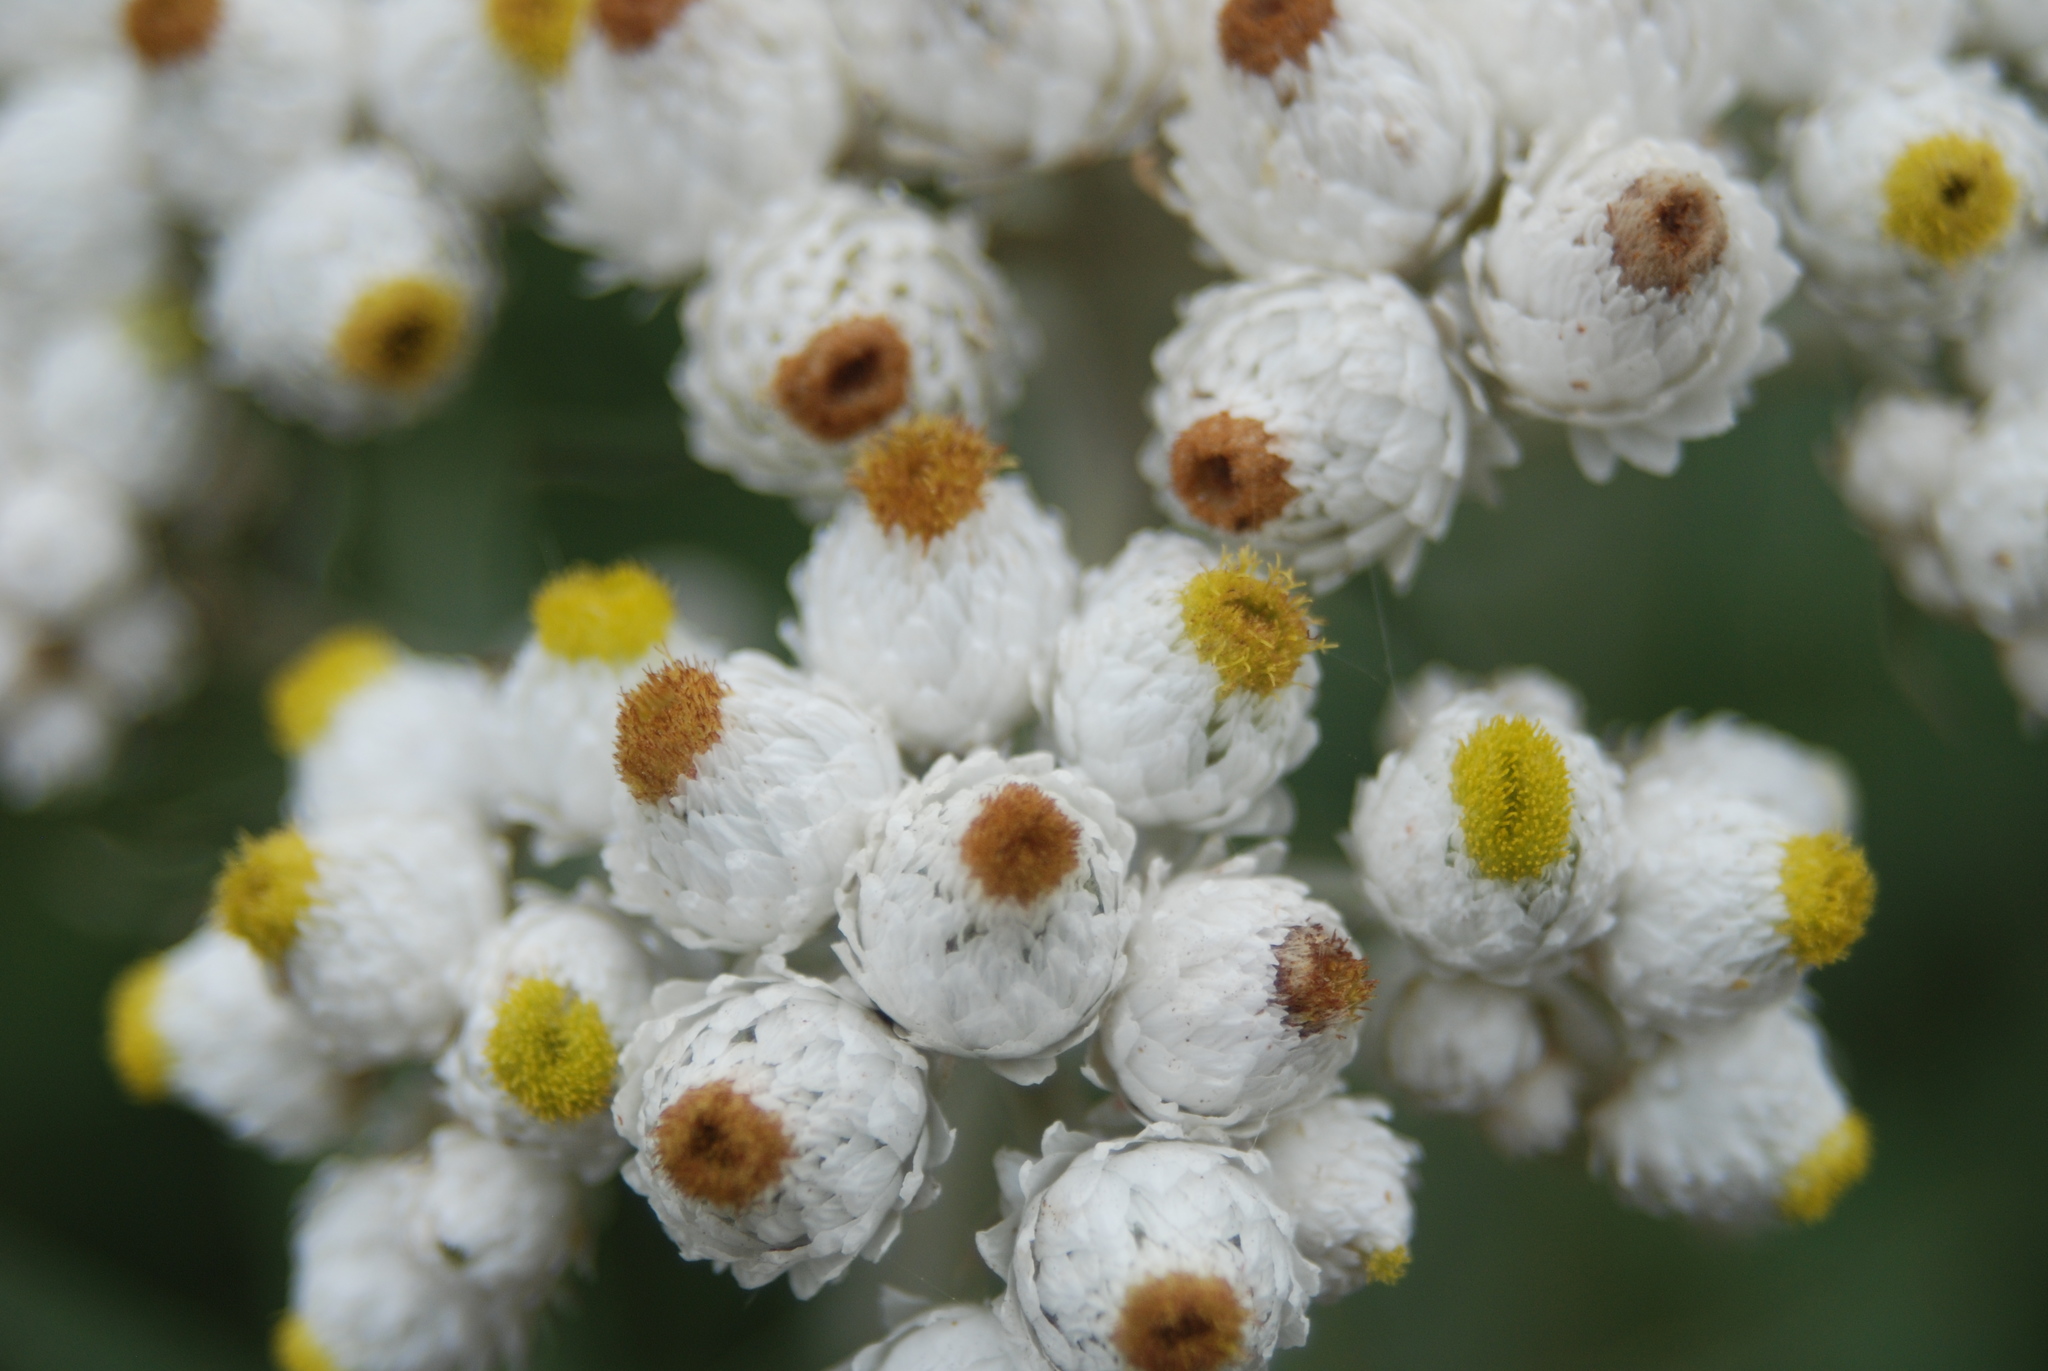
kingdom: Plantae
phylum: Tracheophyta
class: Magnoliopsida
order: Asterales
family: Asteraceae
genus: Anaphalis
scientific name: Anaphalis margaritacea
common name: Pearly everlasting
